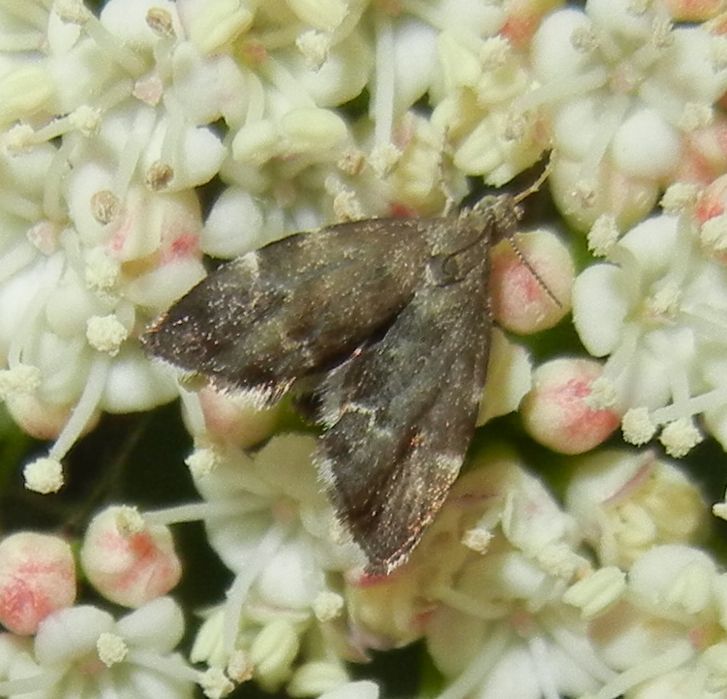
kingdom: Animalia
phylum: Arthropoda
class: Insecta
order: Lepidoptera
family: Choreutidae
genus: Anthophila
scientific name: Anthophila fabriciana
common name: Nettle-tap
